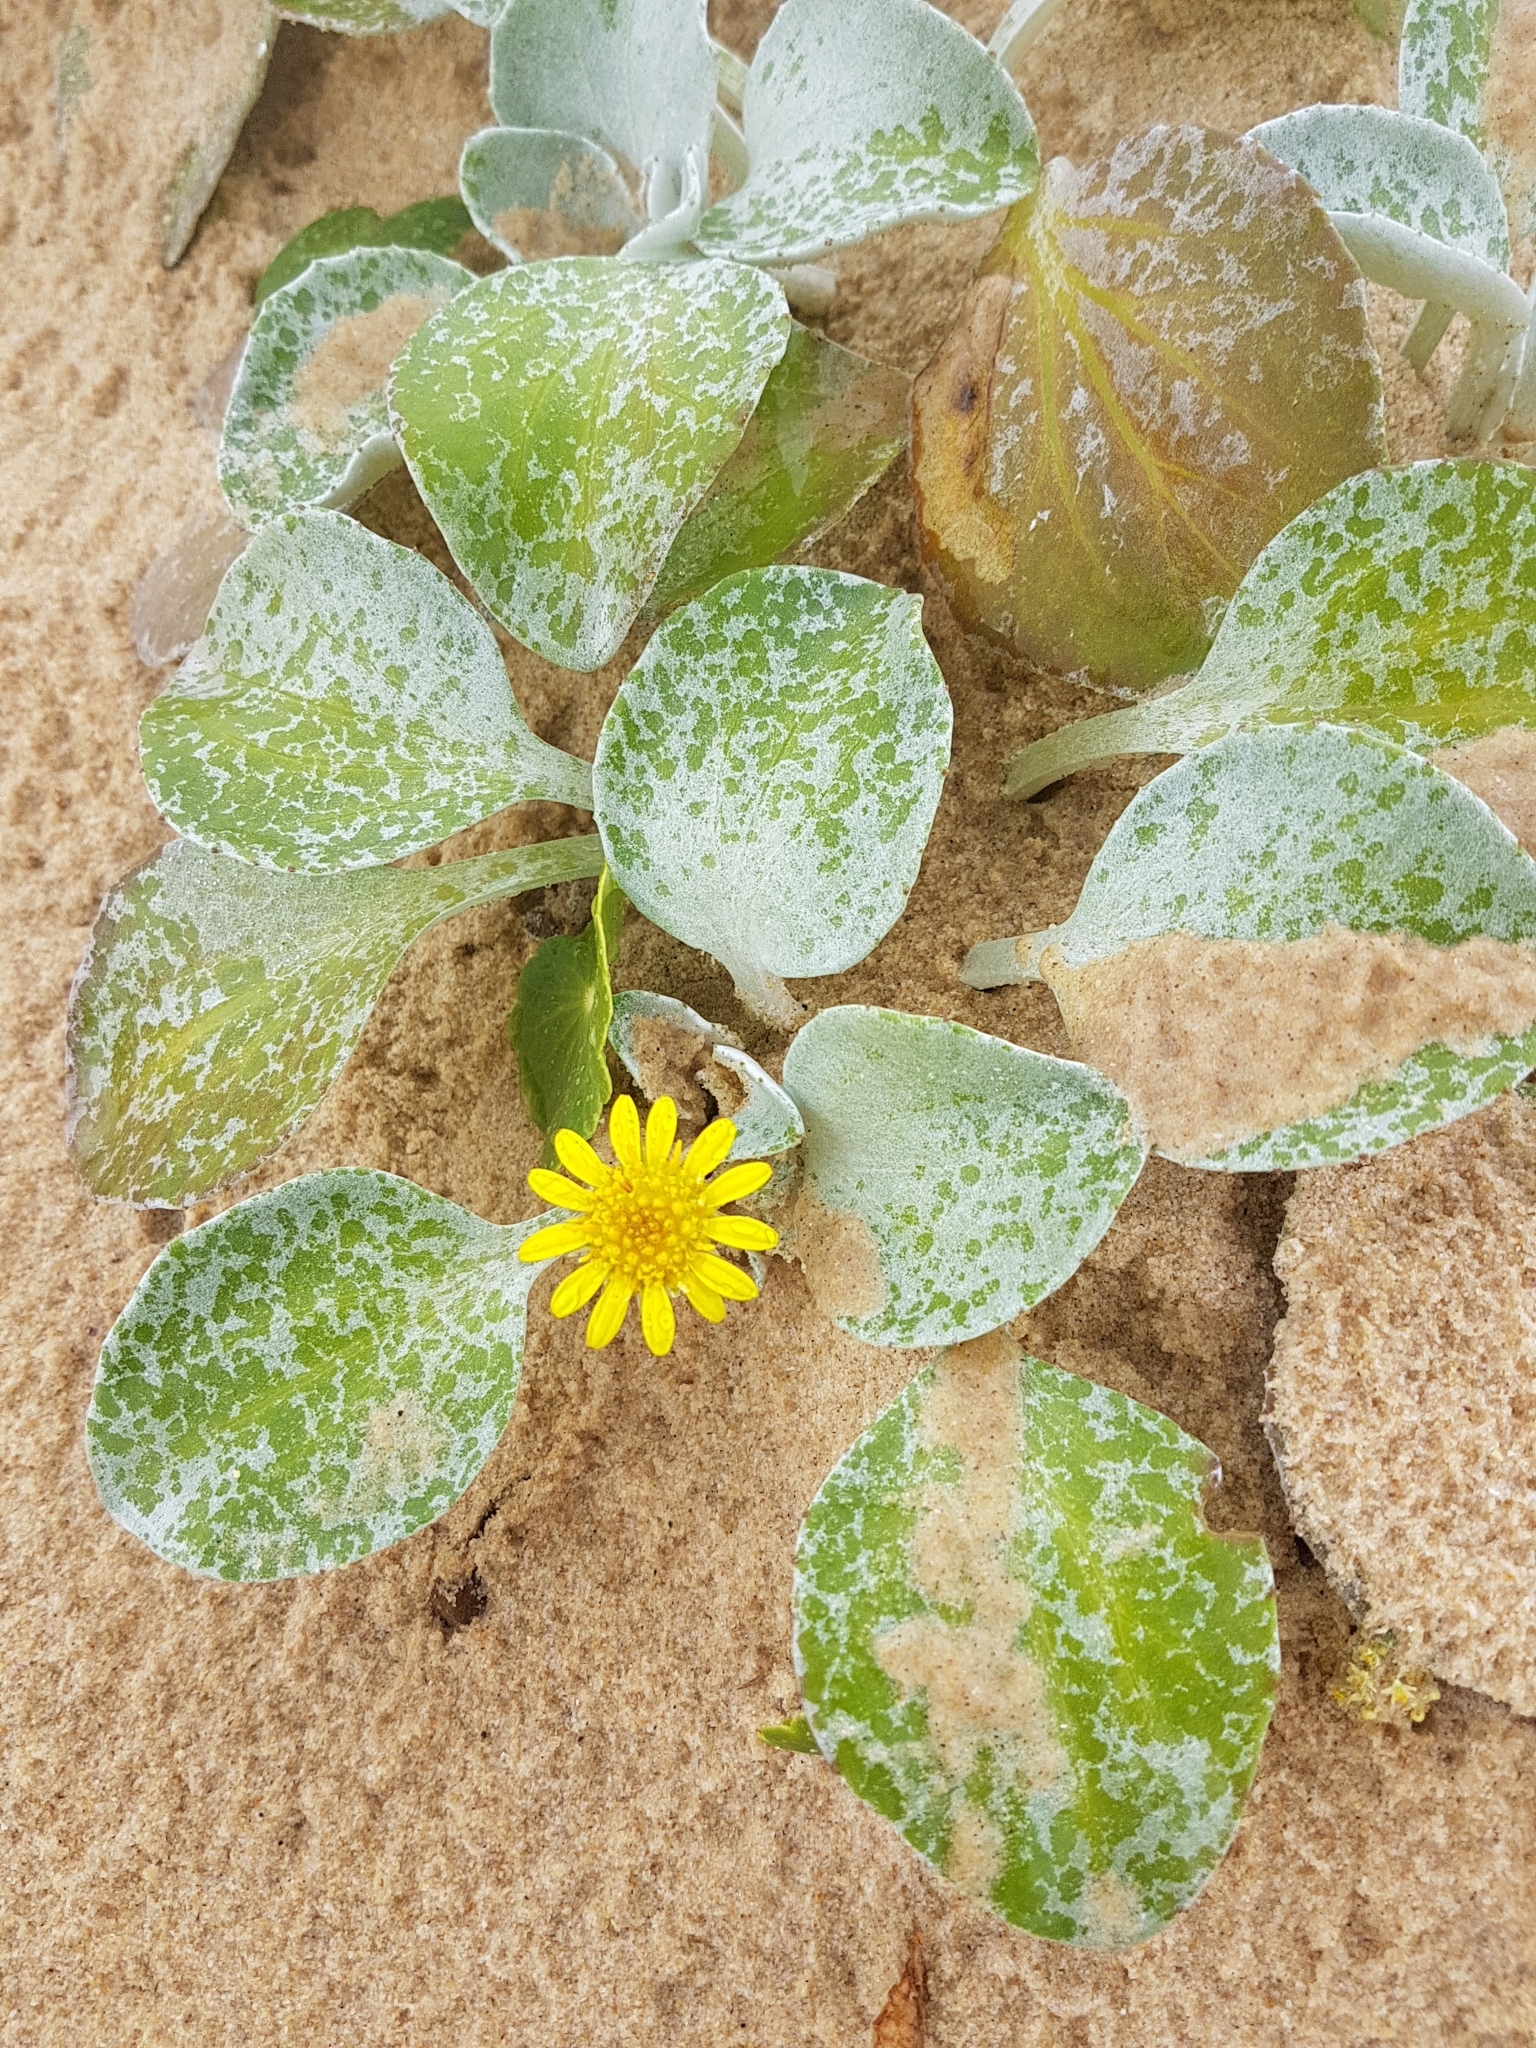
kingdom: Plantae
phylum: Tracheophyta
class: Magnoliopsida
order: Asterales
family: Asteraceae
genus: Arctotheca
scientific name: Arctotheca populifolia
